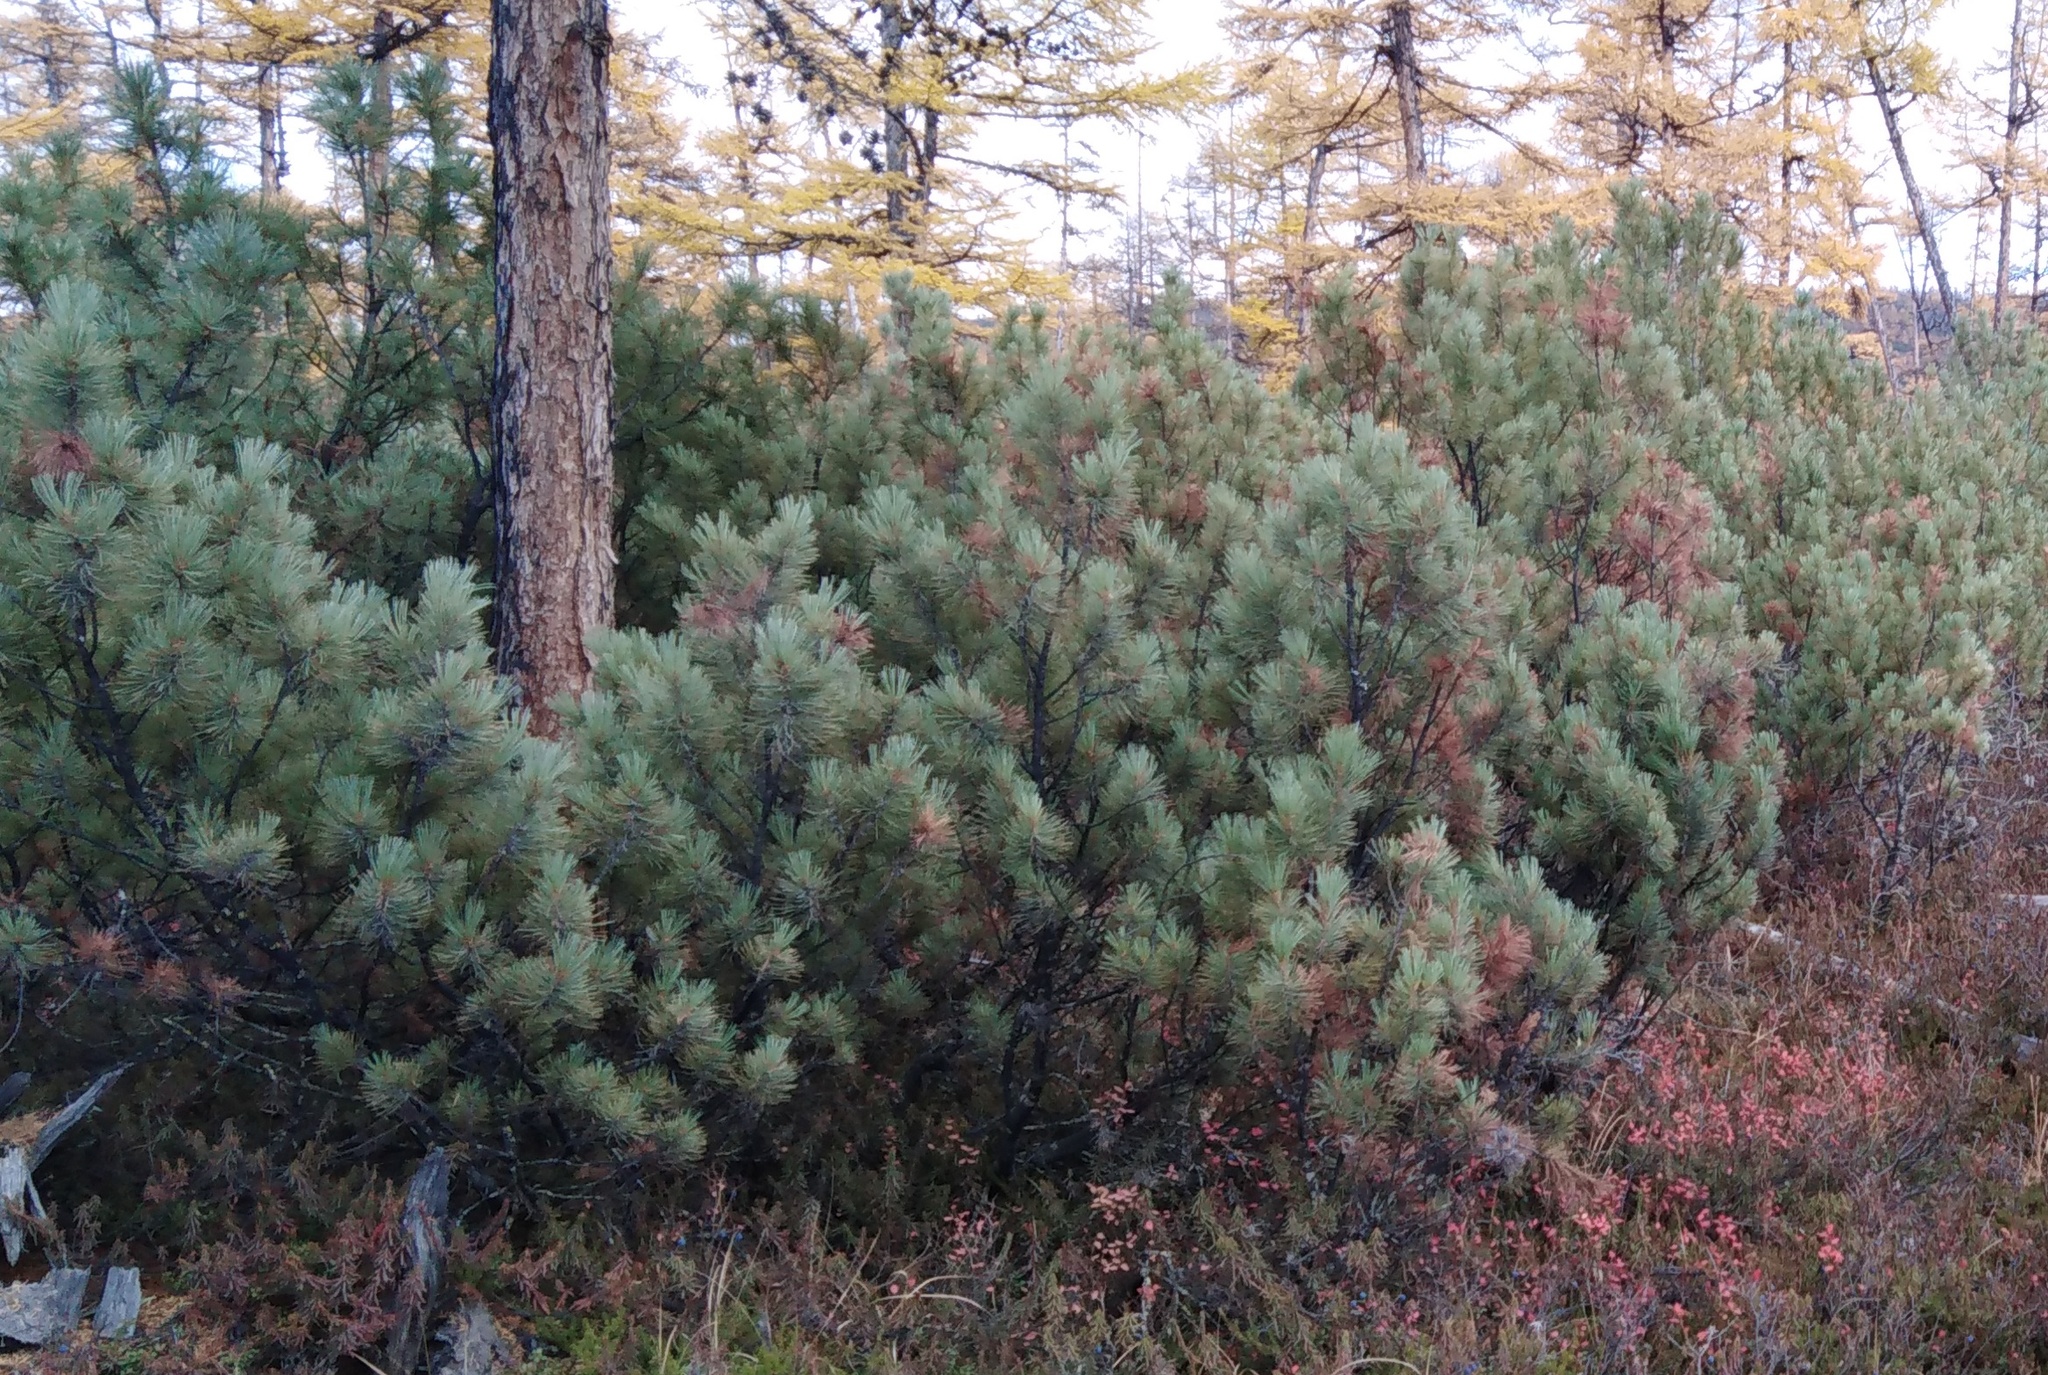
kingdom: Plantae
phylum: Tracheophyta
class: Pinopsida
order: Pinales
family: Pinaceae
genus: Pinus
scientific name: Pinus pumila
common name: Dwarf siberian pine
